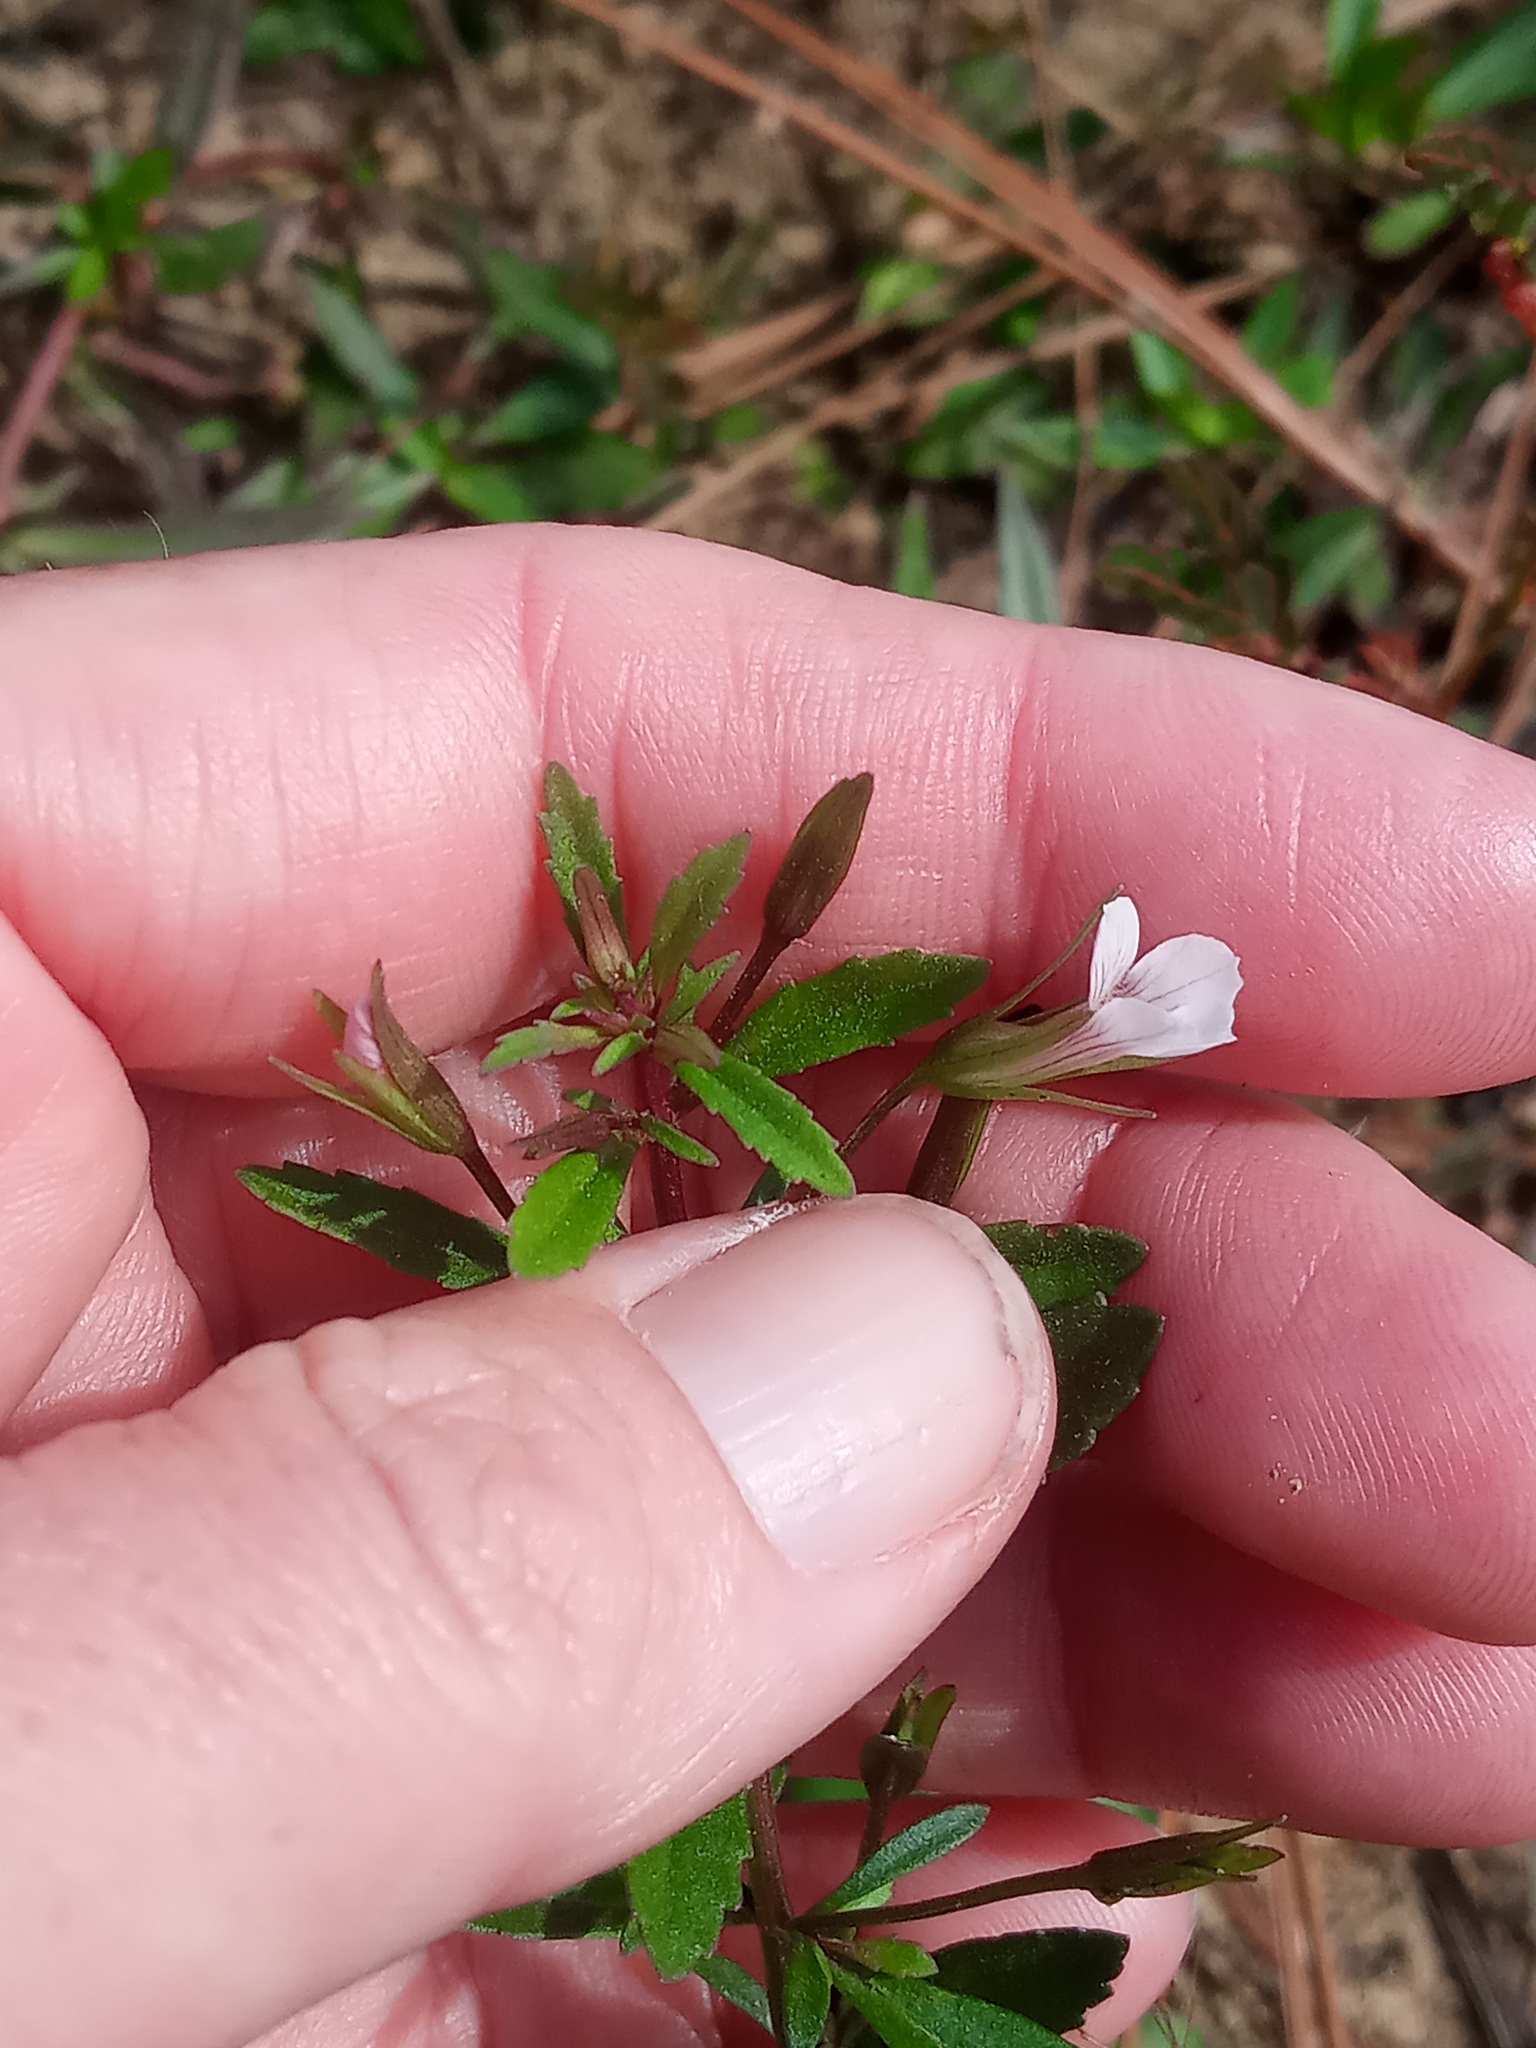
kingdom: Plantae
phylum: Tracheophyta
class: Magnoliopsida
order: Lamiales
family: Plantaginaceae
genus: Mecardonia
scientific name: Mecardonia acuminata
